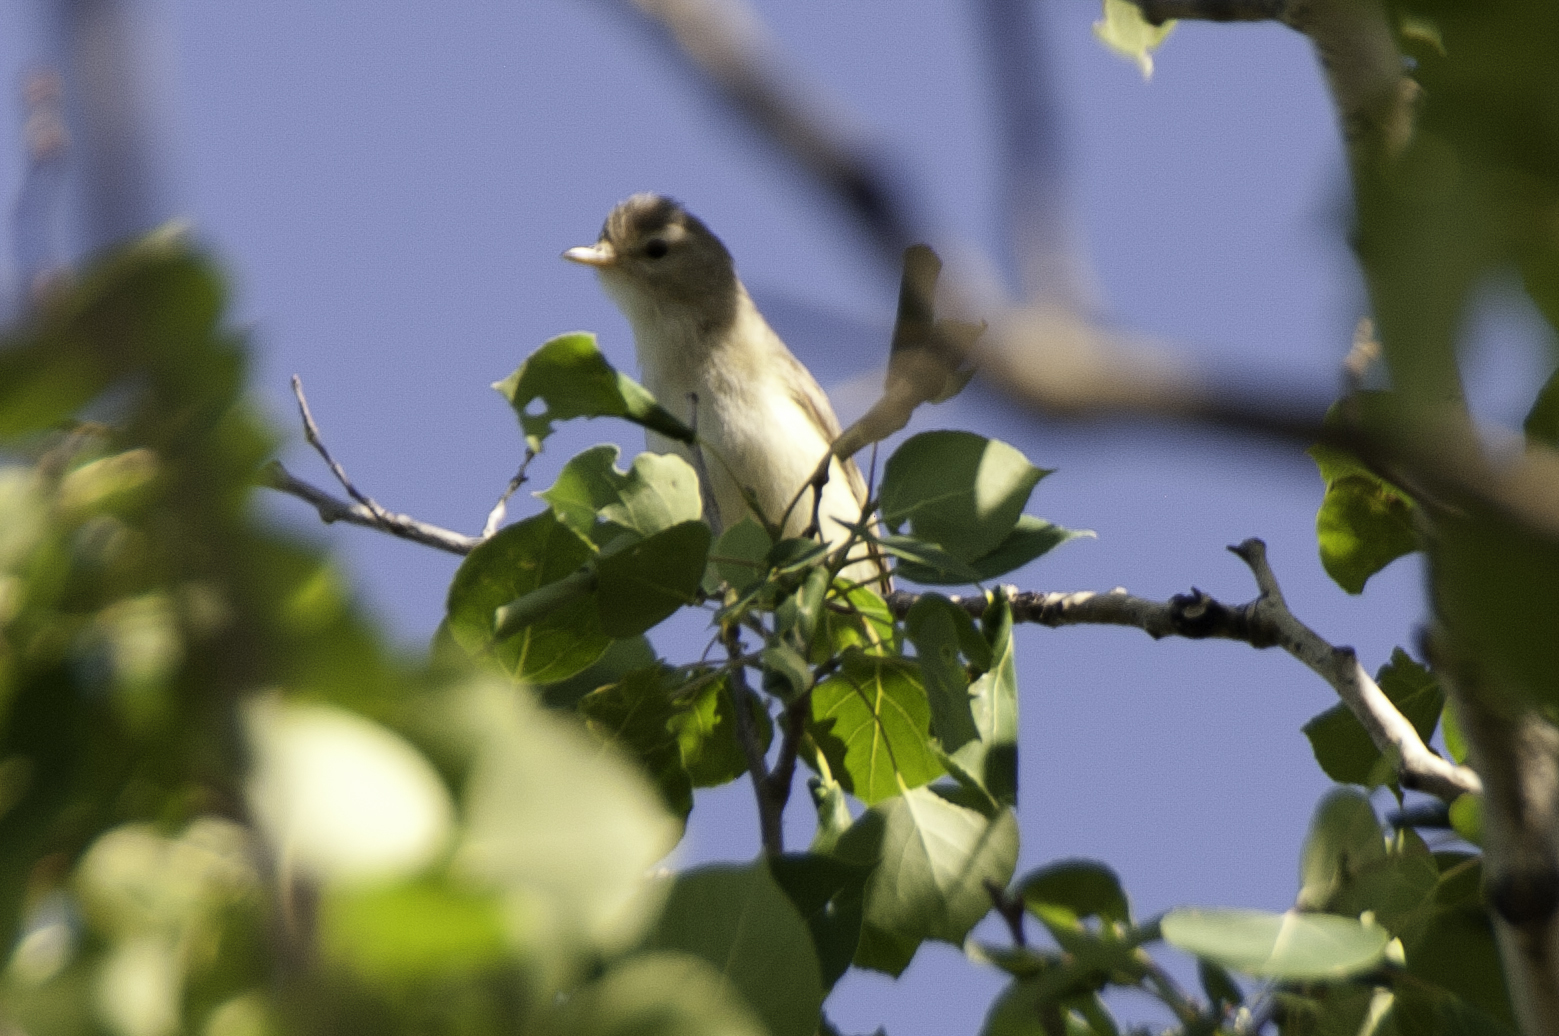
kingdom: Animalia
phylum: Chordata
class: Aves
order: Passeriformes
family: Vireonidae
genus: Vireo
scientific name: Vireo gilvus
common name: Warbling vireo
